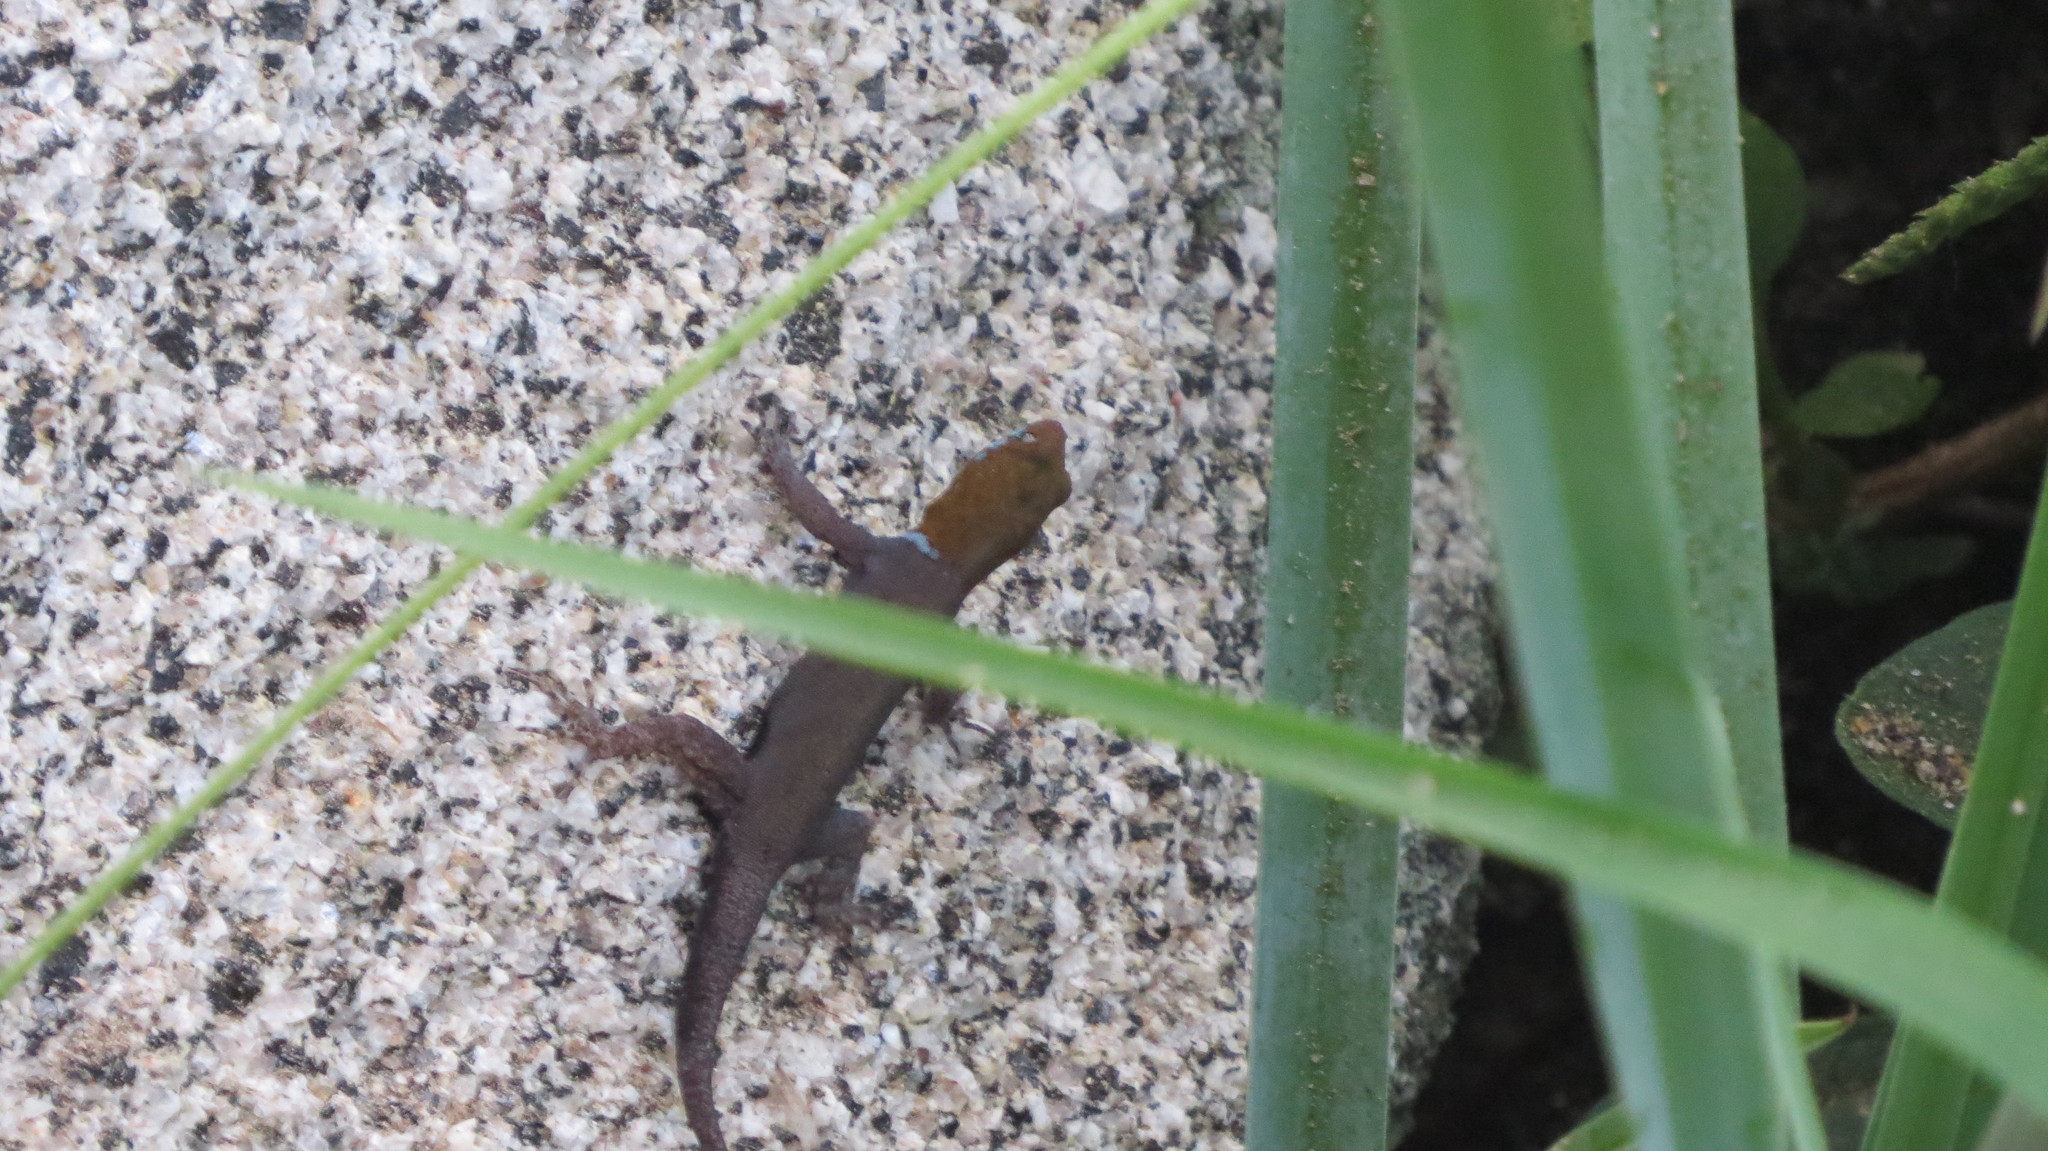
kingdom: Animalia
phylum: Chordata
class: Squamata
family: Sphaerodactylidae
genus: Gonatodes
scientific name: Gonatodes albogularis
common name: Yellow-headed gecko
